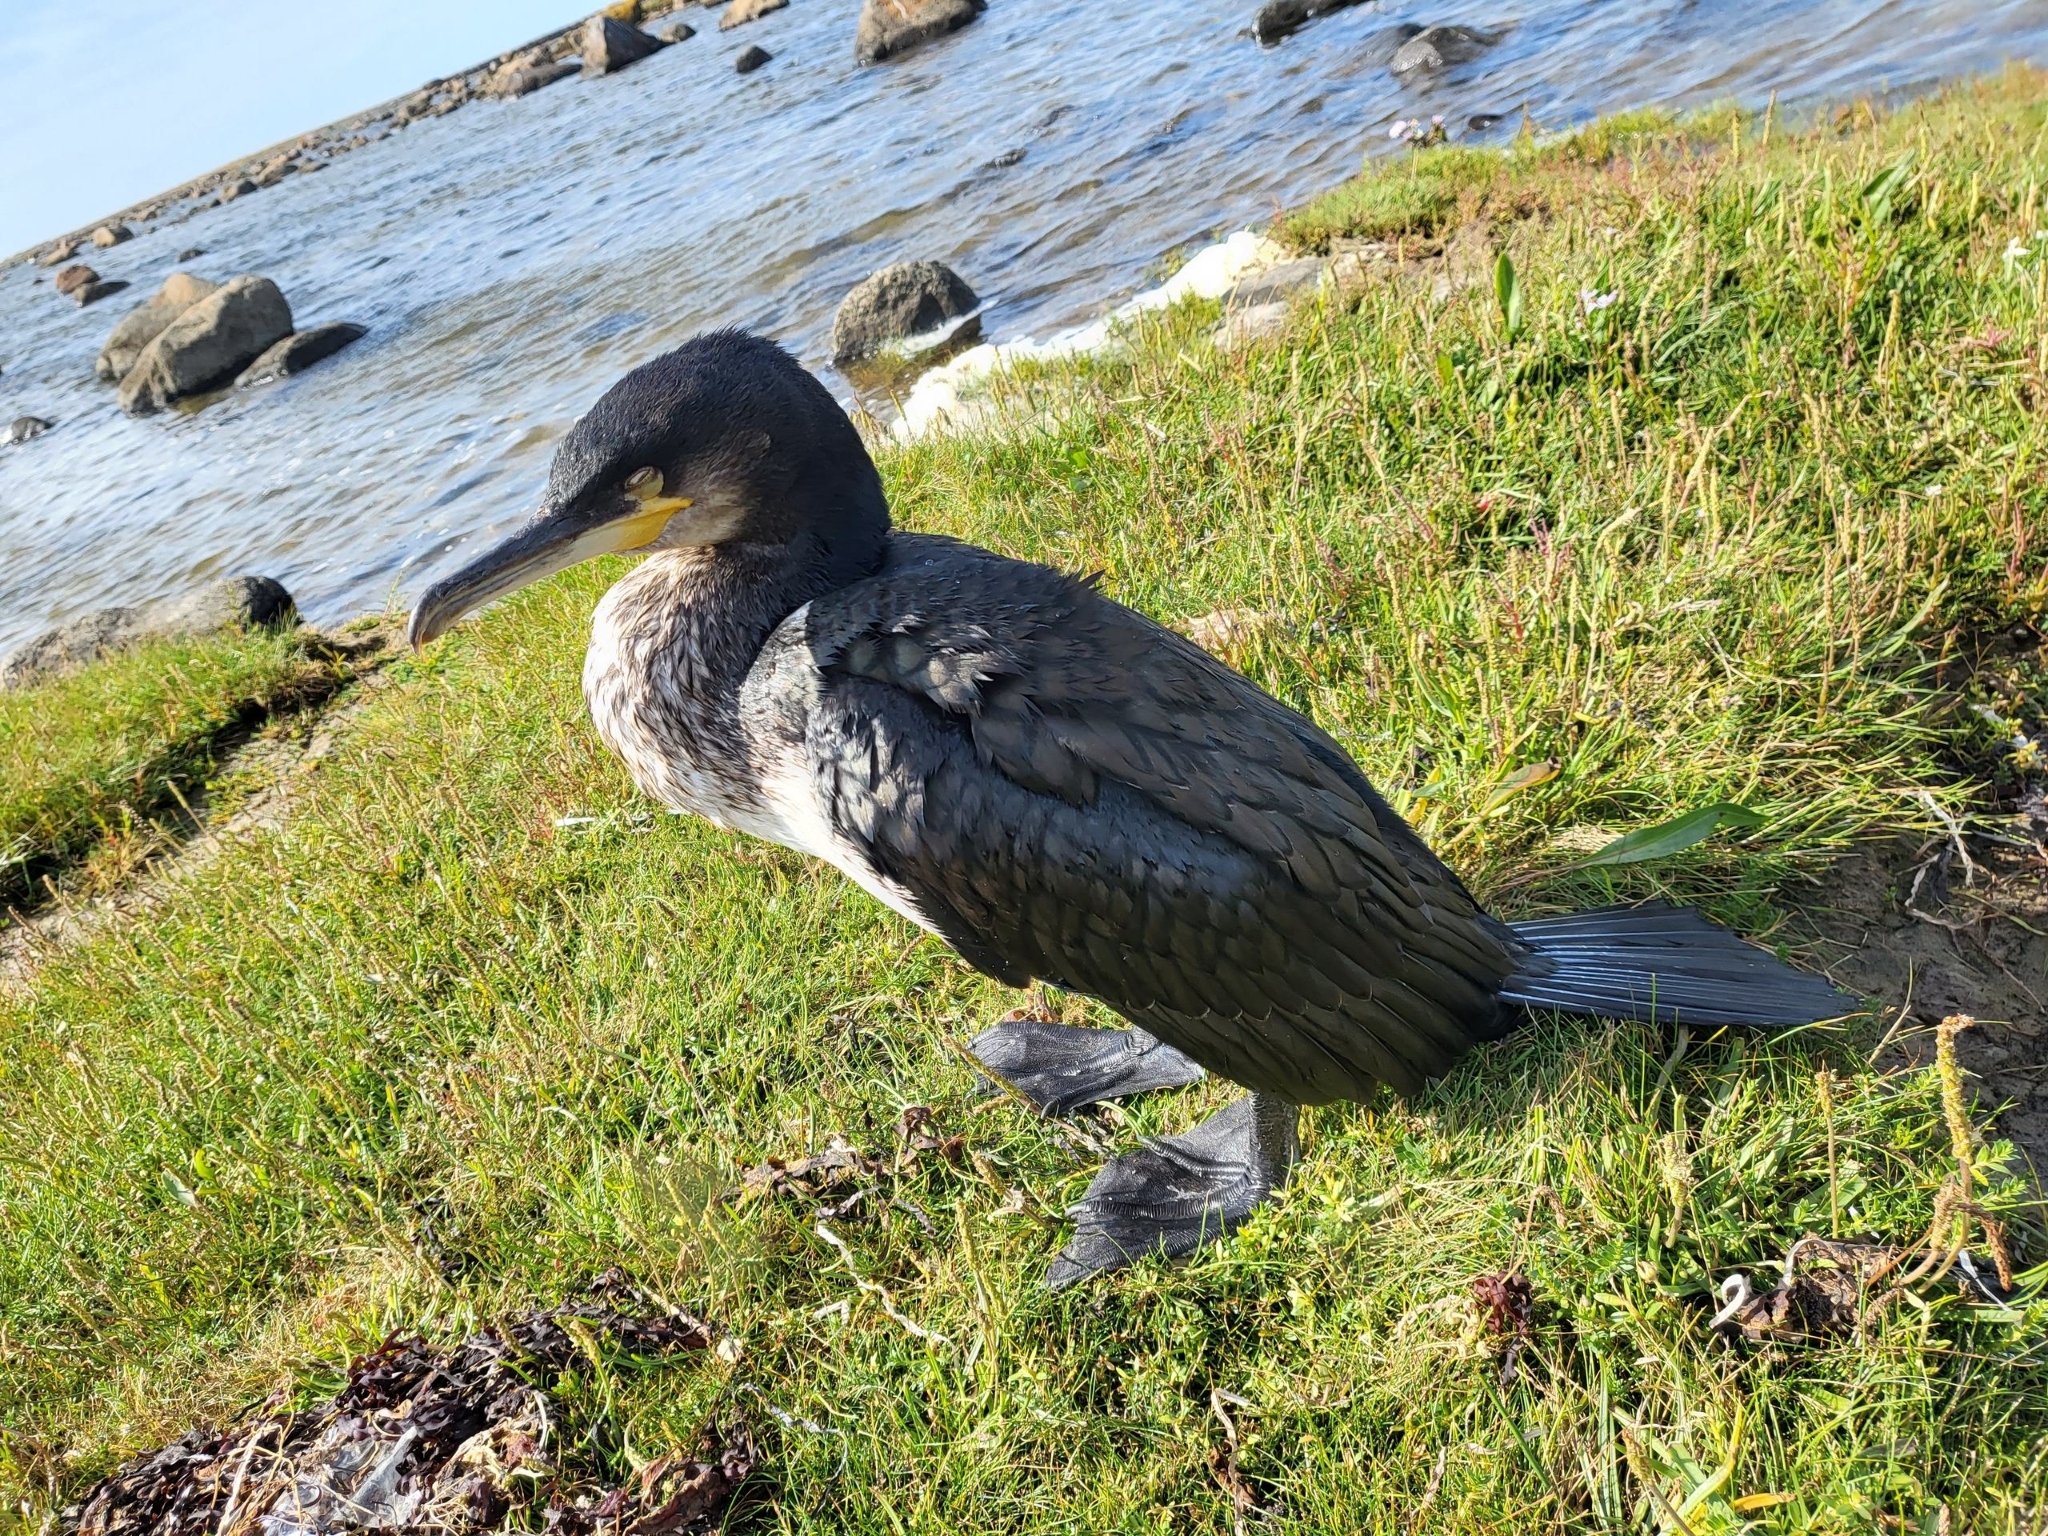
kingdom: Animalia
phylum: Chordata
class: Aves
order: Suliformes
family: Phalacrocoracidae
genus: Phalacrocorax
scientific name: Phalacrocorax carbo
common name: Great cormorant
